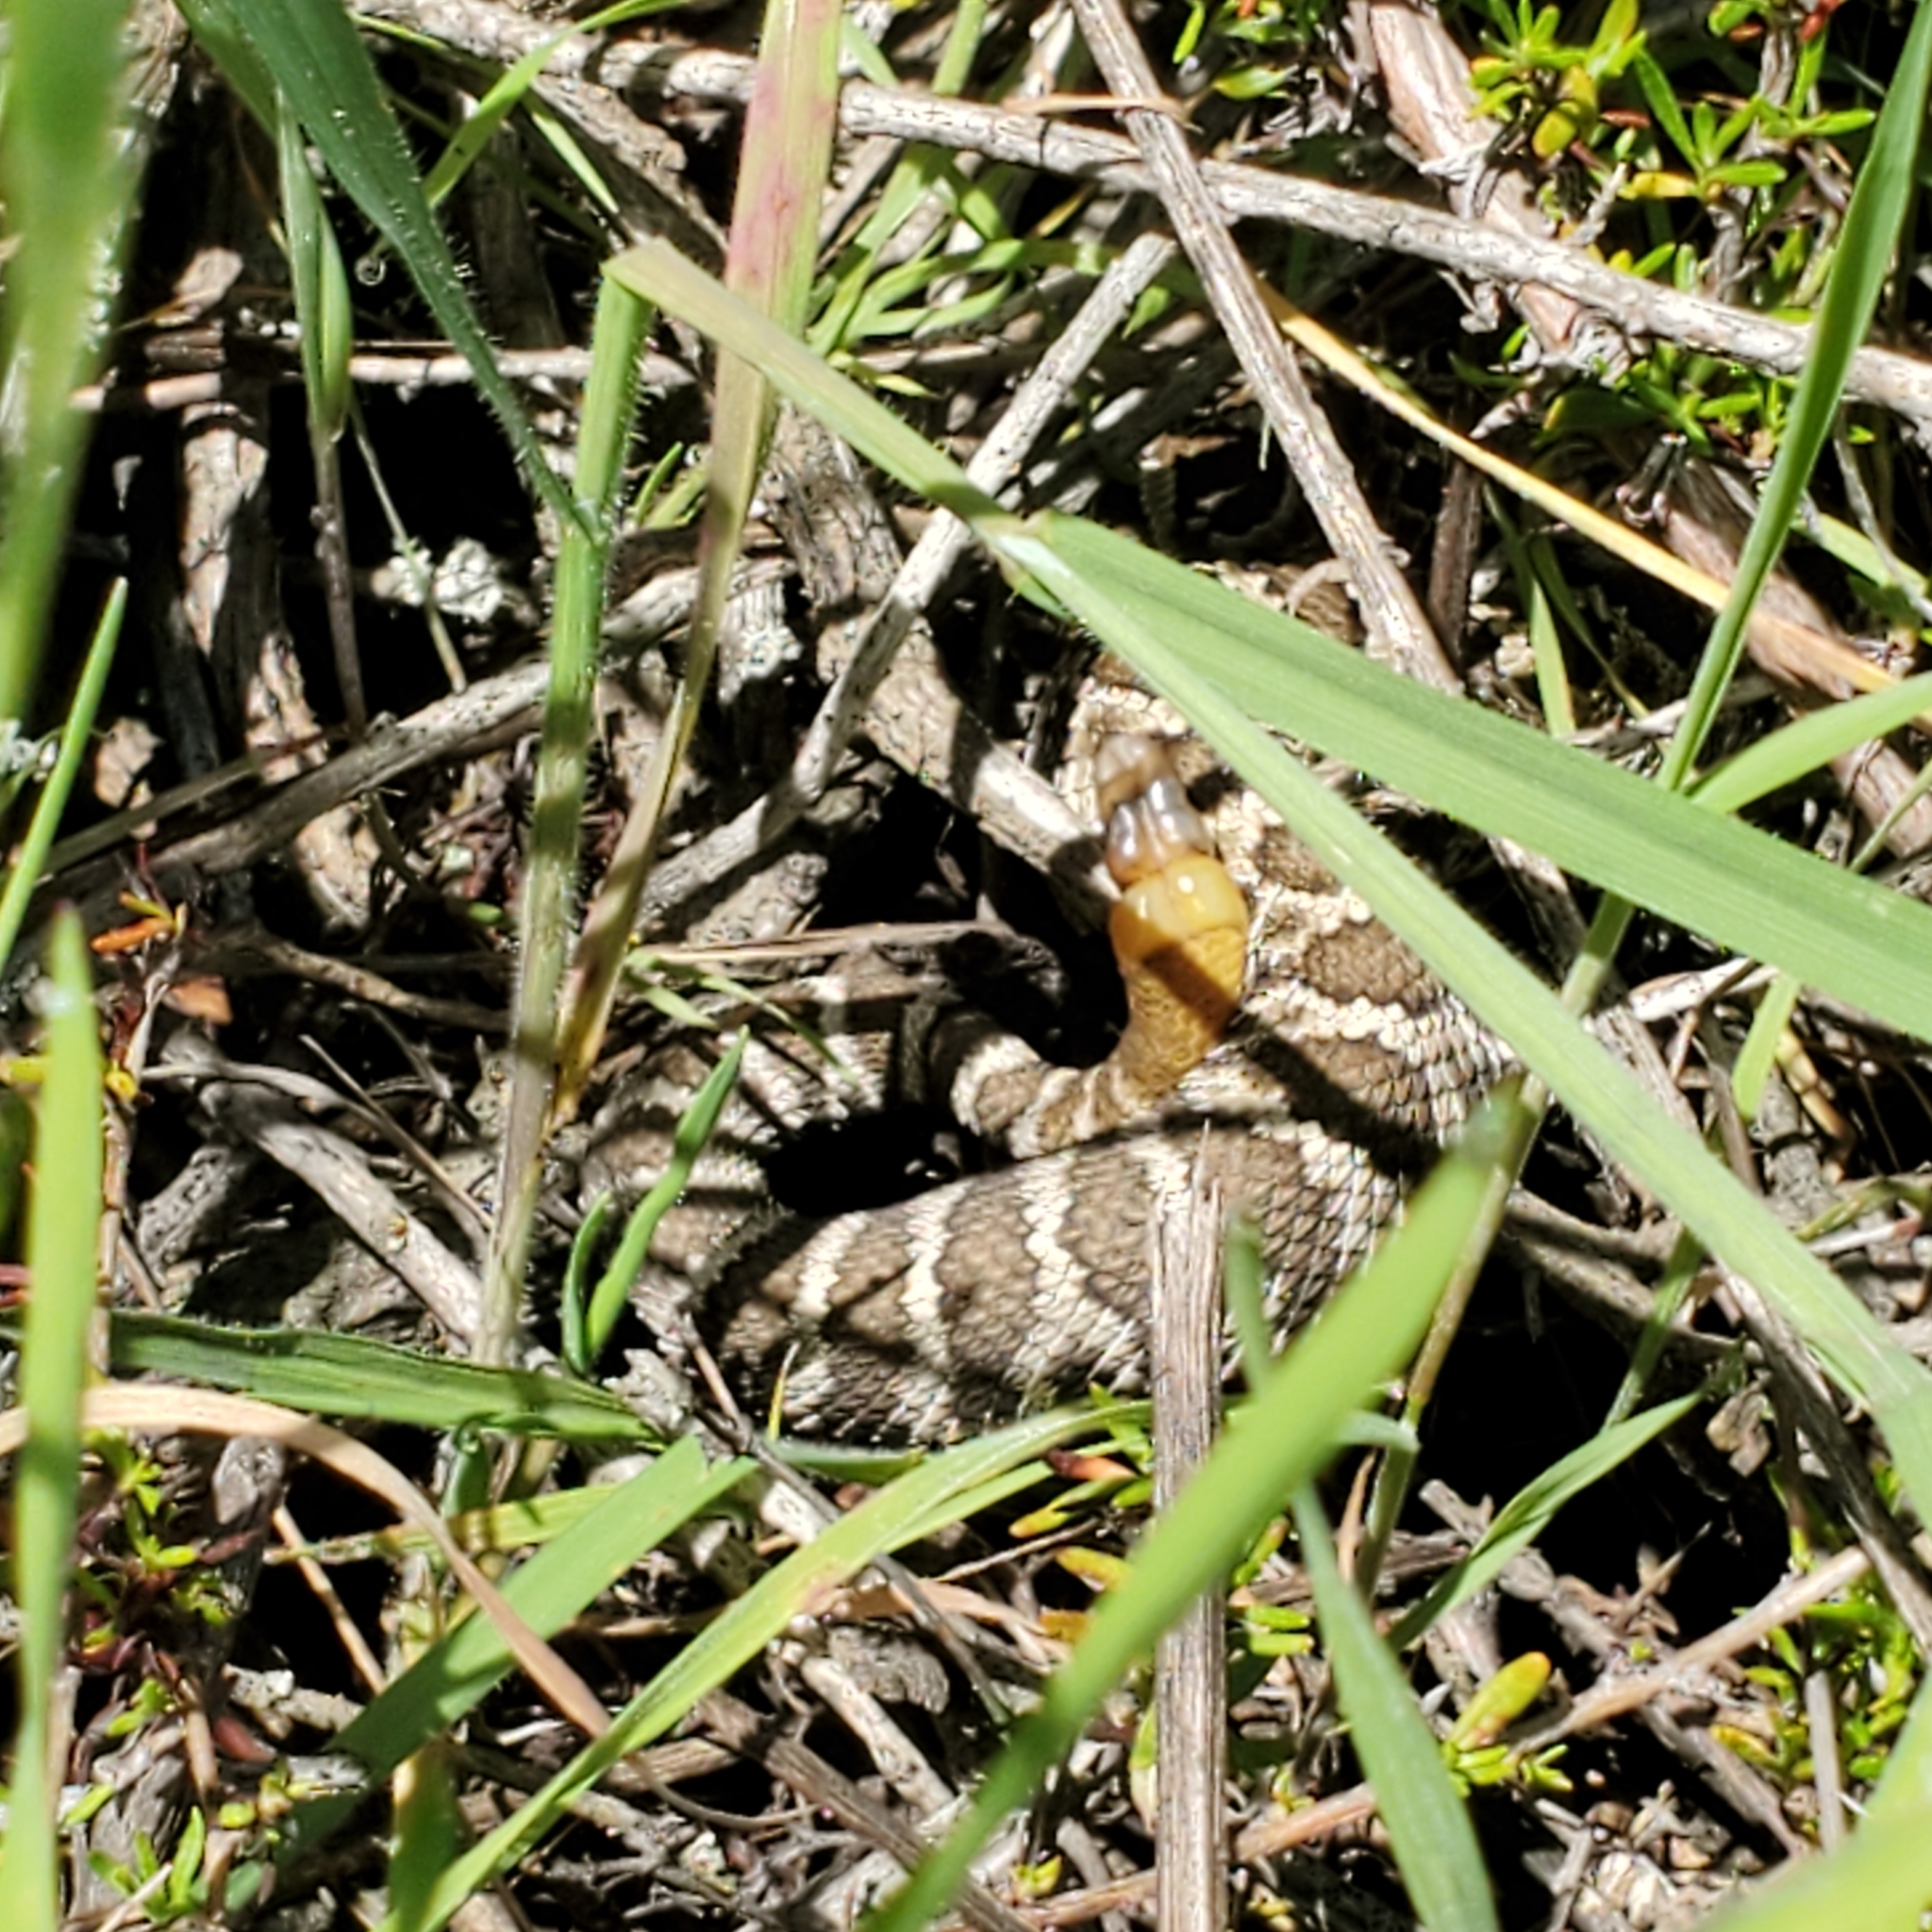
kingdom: Animalia
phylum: Chordata
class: Squamata
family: Viperidae
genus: Crotalus
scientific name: Crotalus oreganus
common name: Abyssus
